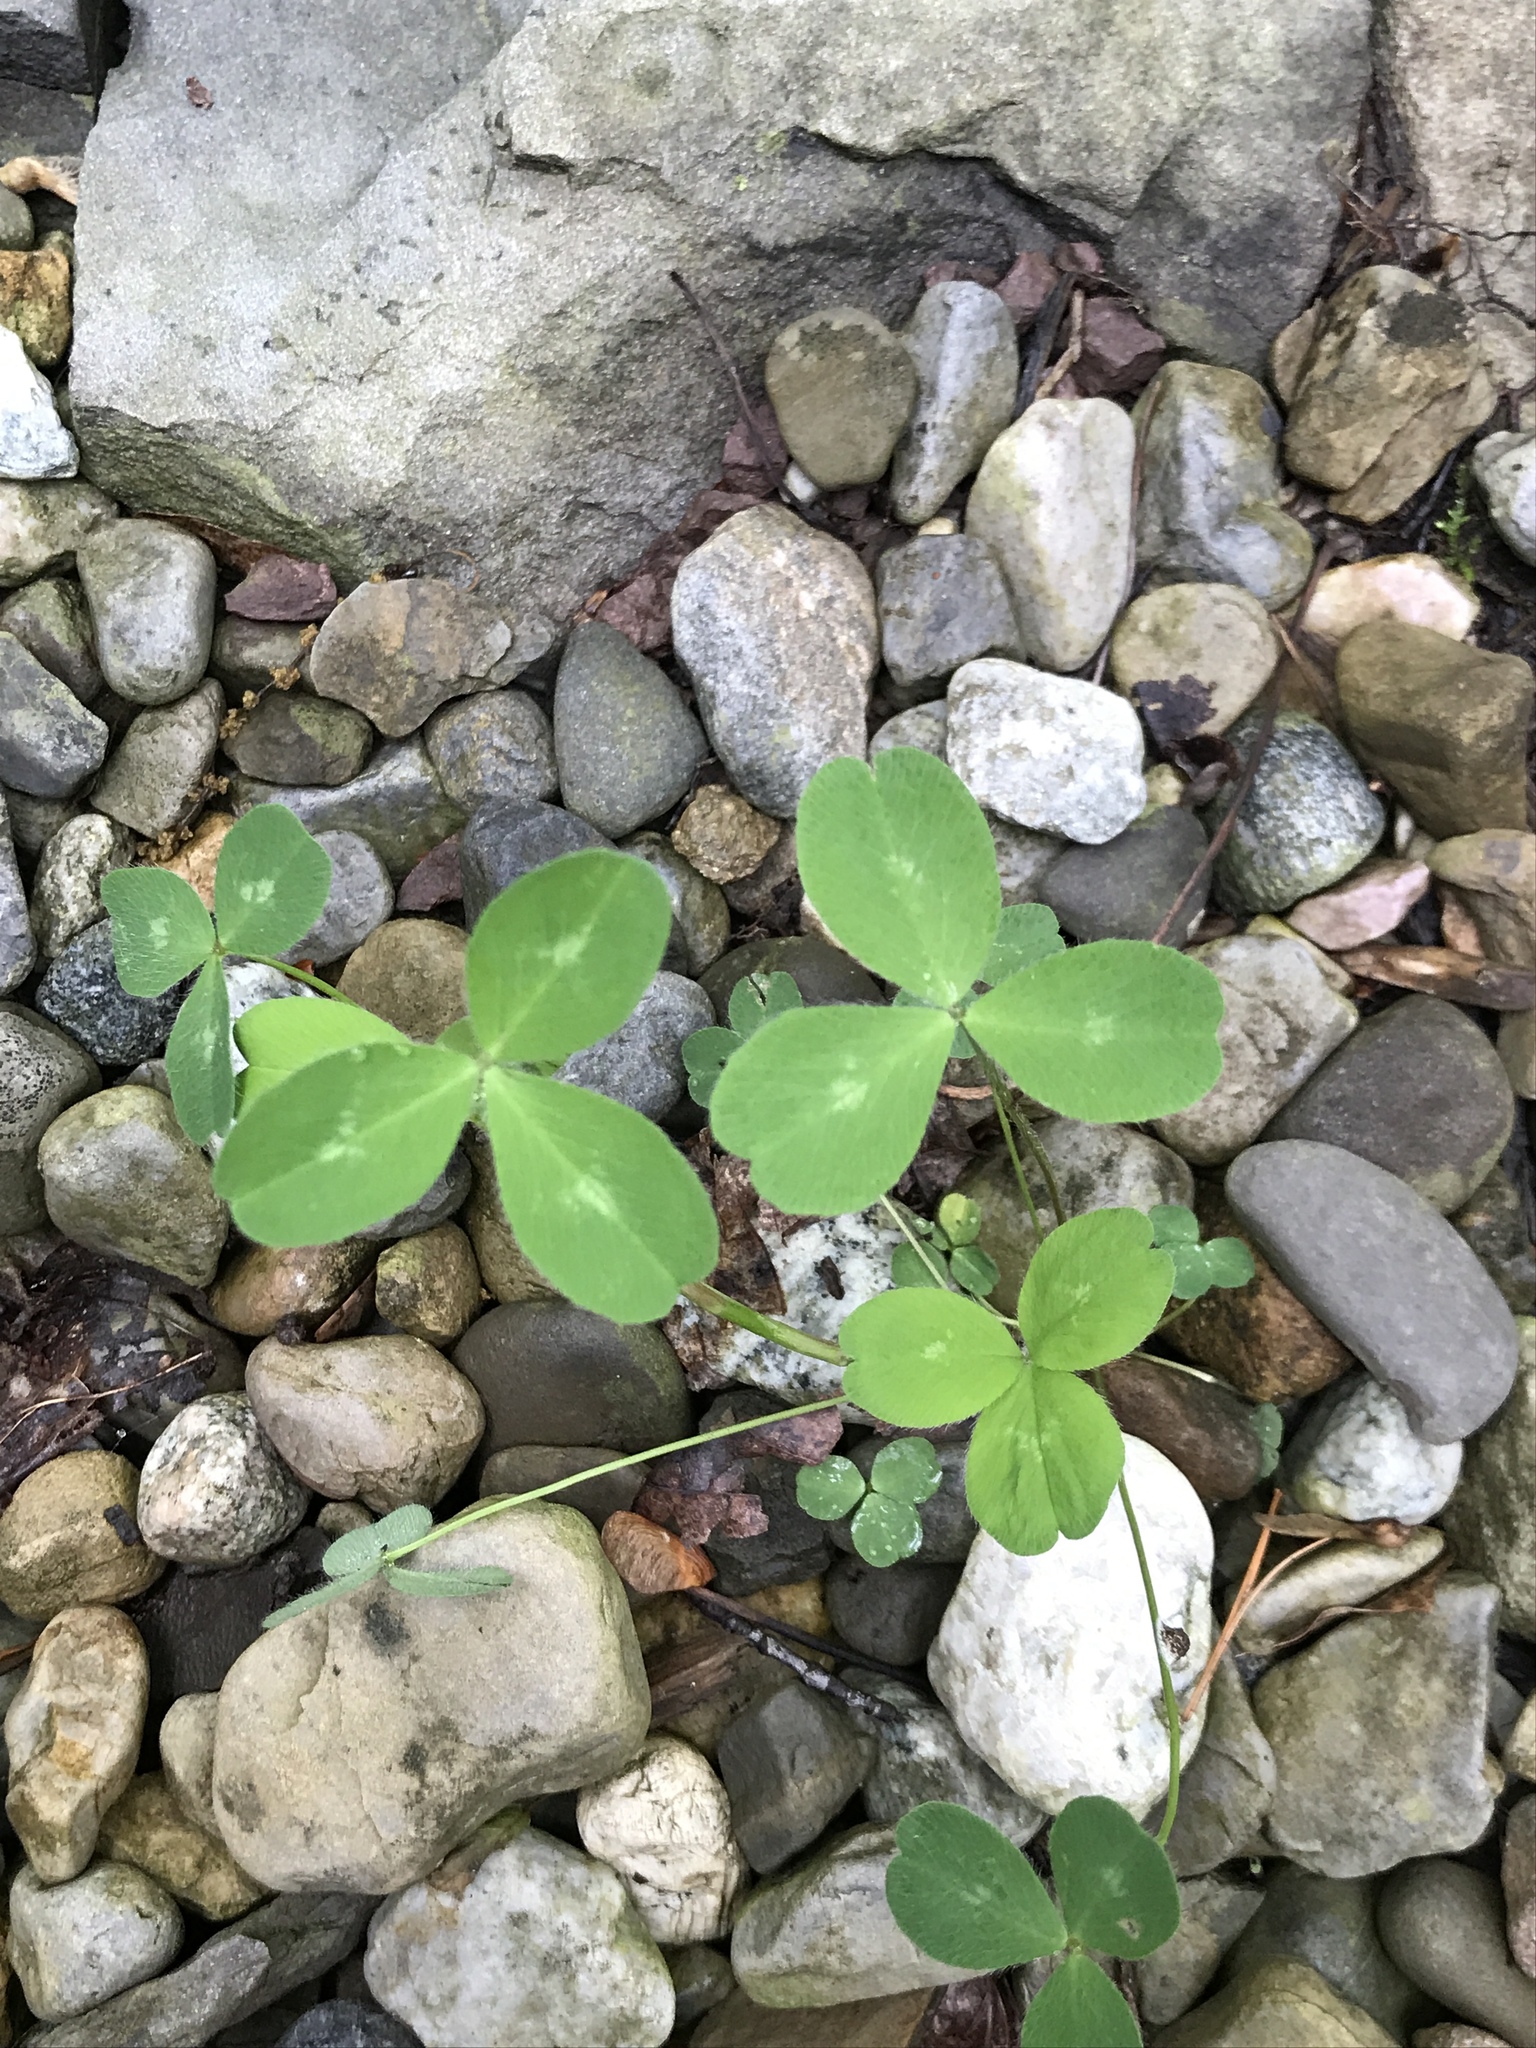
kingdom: Plantae
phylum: Tracheophyta
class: Magnoliopsida
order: Fabales
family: Fabaceae
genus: Trifolium
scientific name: Trifolium pratense
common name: Red clover
